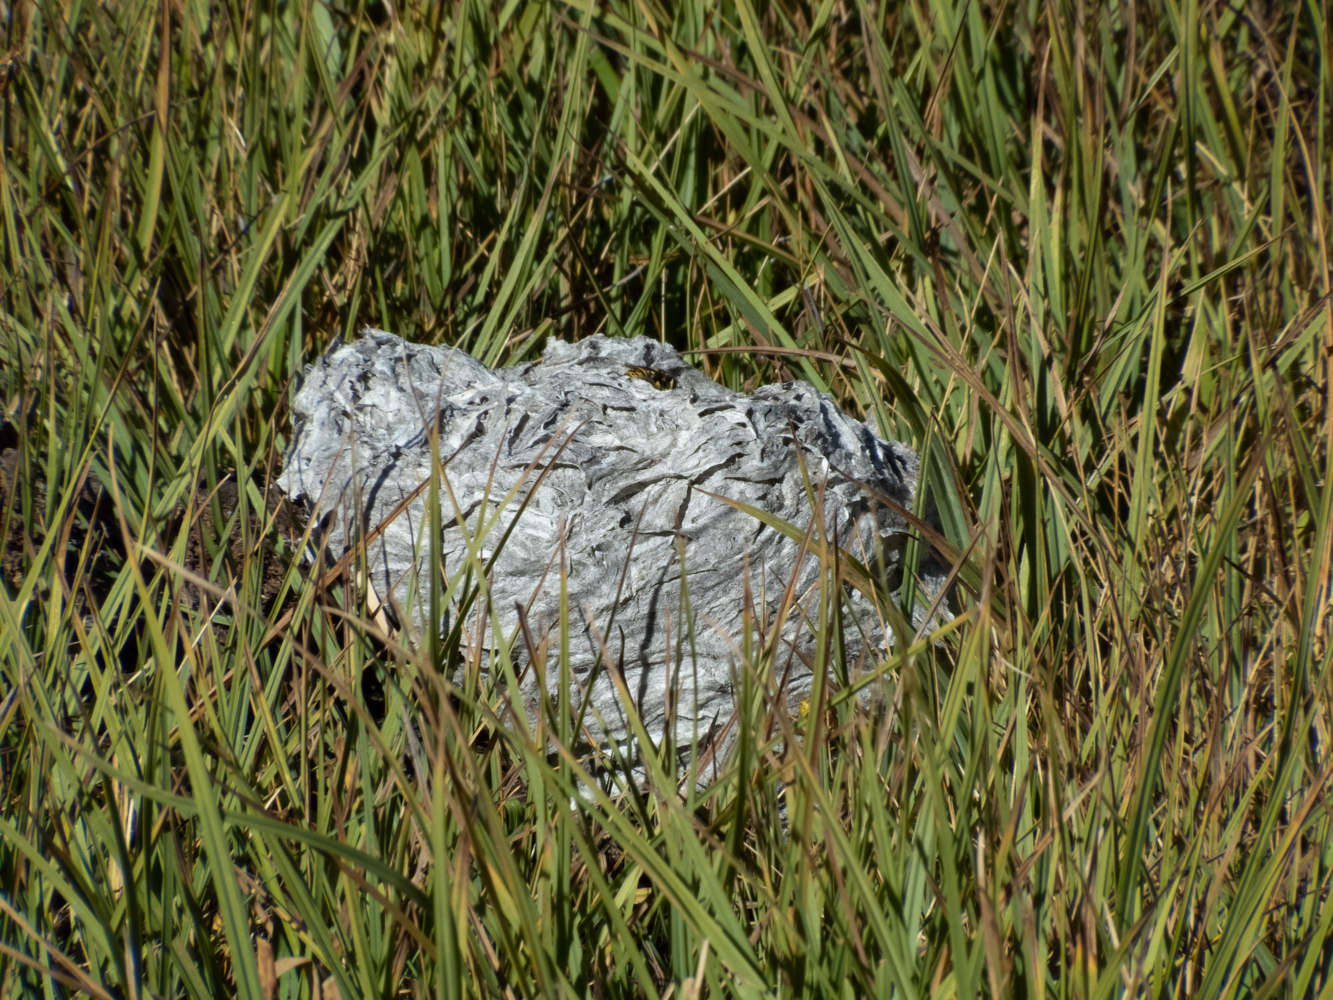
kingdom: Animalia
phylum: Arthropoda
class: Insecta
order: Hymenoptera
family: Vespidae
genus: Dolichovespula
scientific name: Dolichovespula arenaria
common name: Aerial yellowjacket
